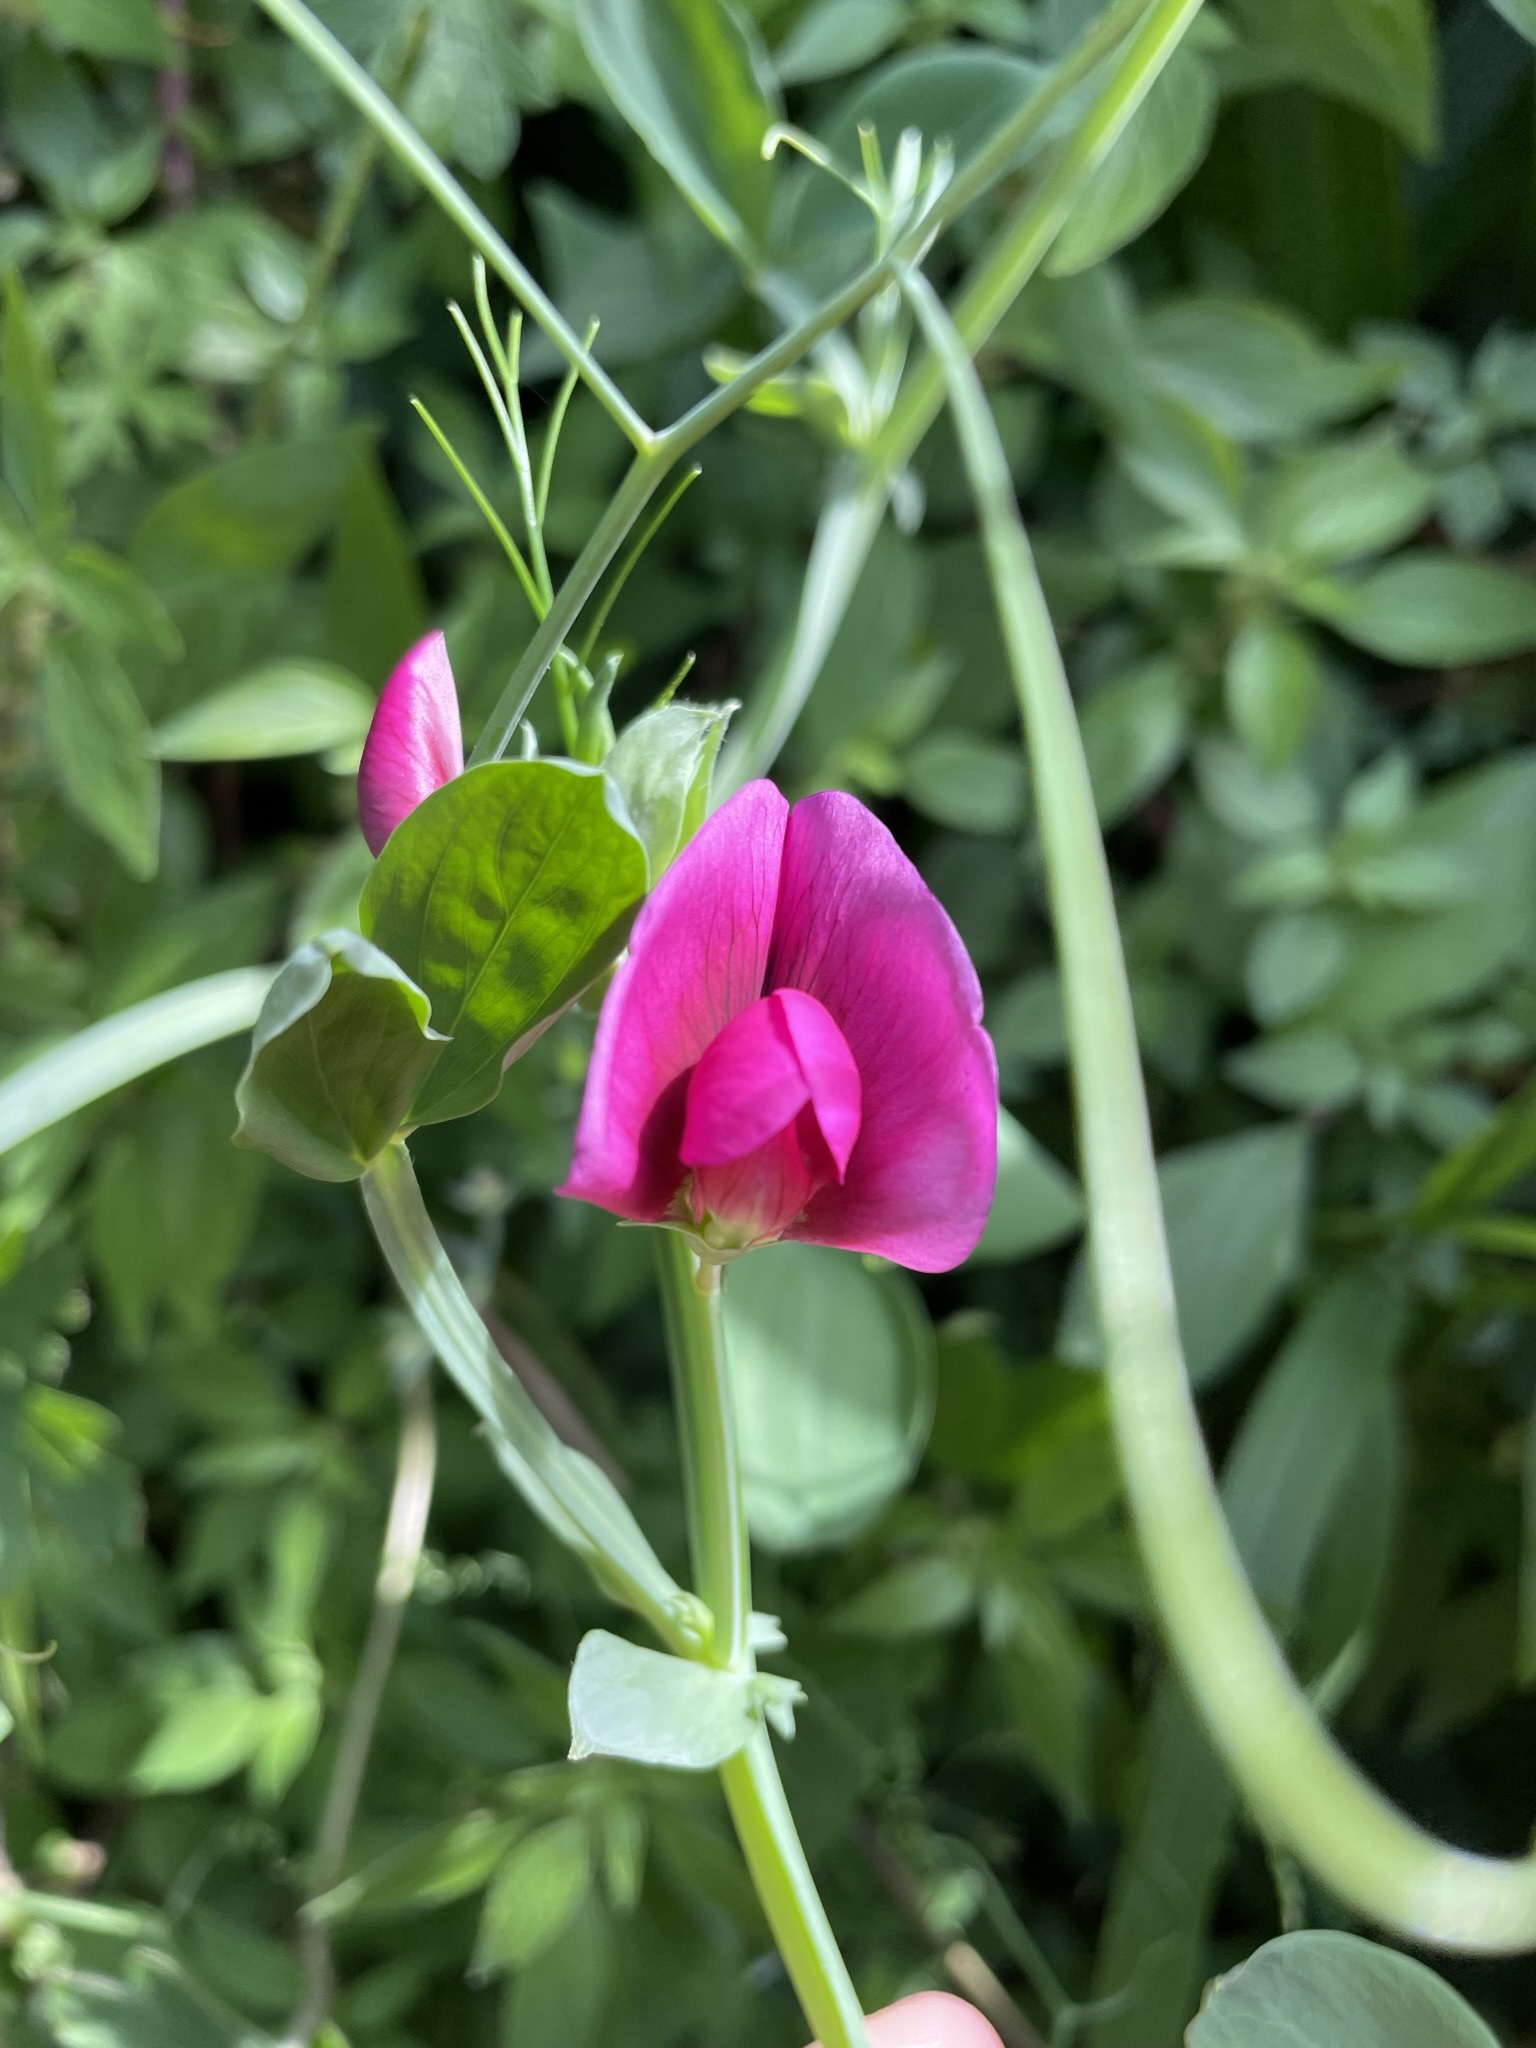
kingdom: Plantae
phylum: Tracheophyta
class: Magnoliopsida
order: Fabales
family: Fabaceae
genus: Lathyrus
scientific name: Lathyrus tingitanus
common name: Tangier pea
